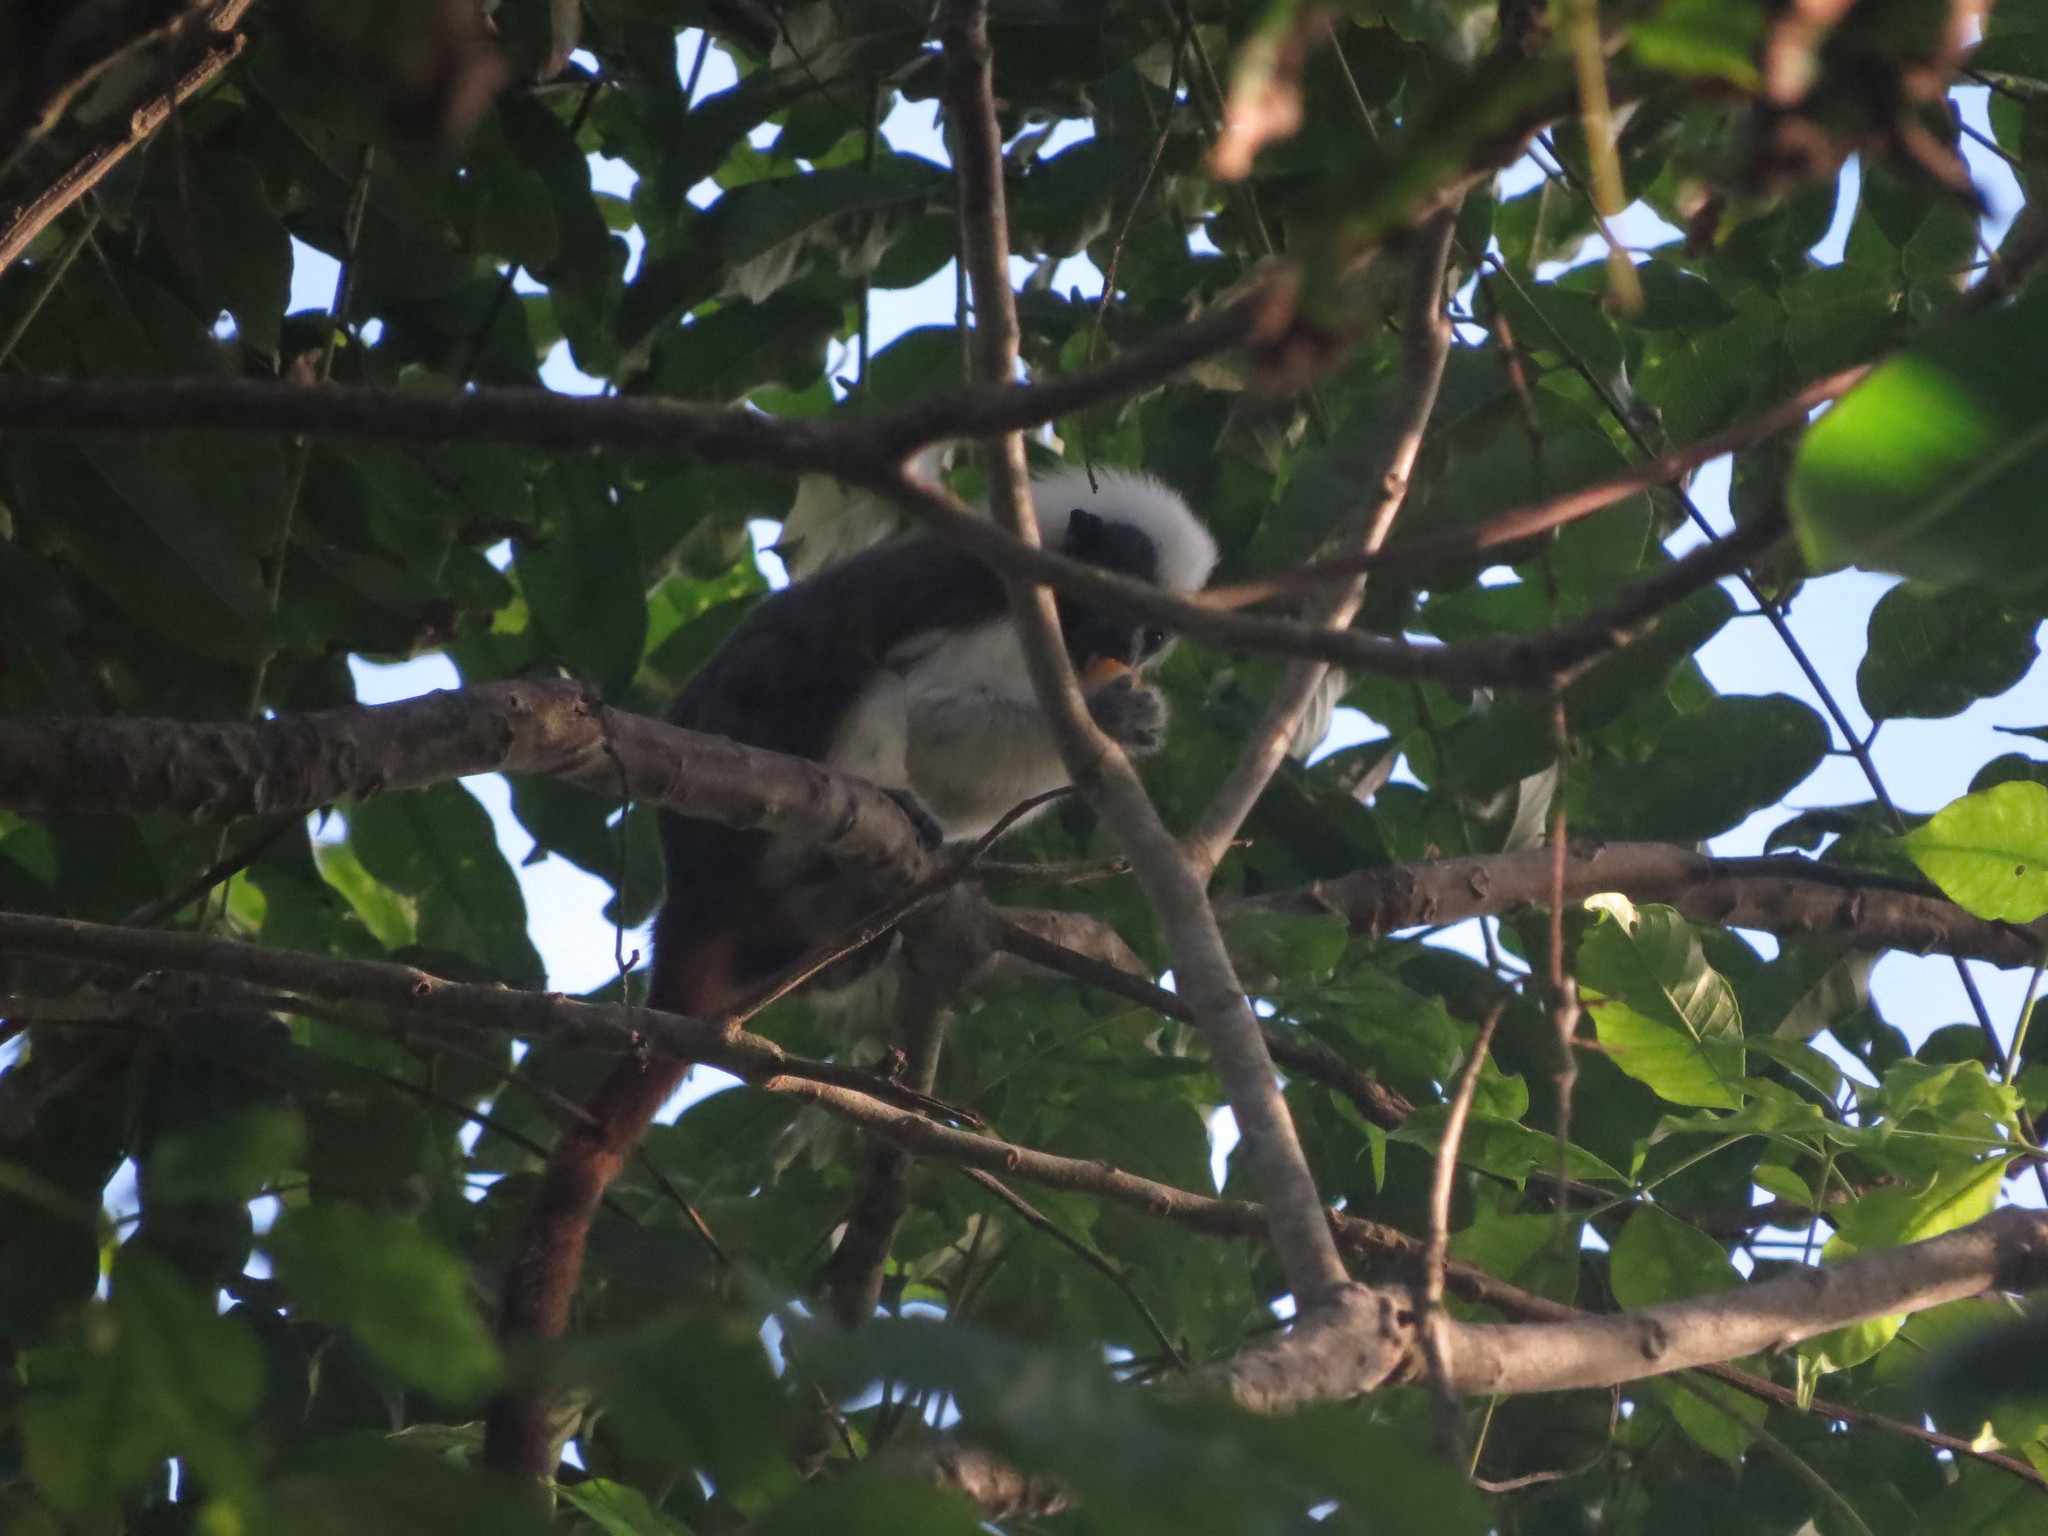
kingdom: Animalia
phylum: Chordata
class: Mammalia
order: Primates
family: Callitrichidae
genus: Saguinus
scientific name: Saguinus oedipus
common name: Cottontop tamarin
